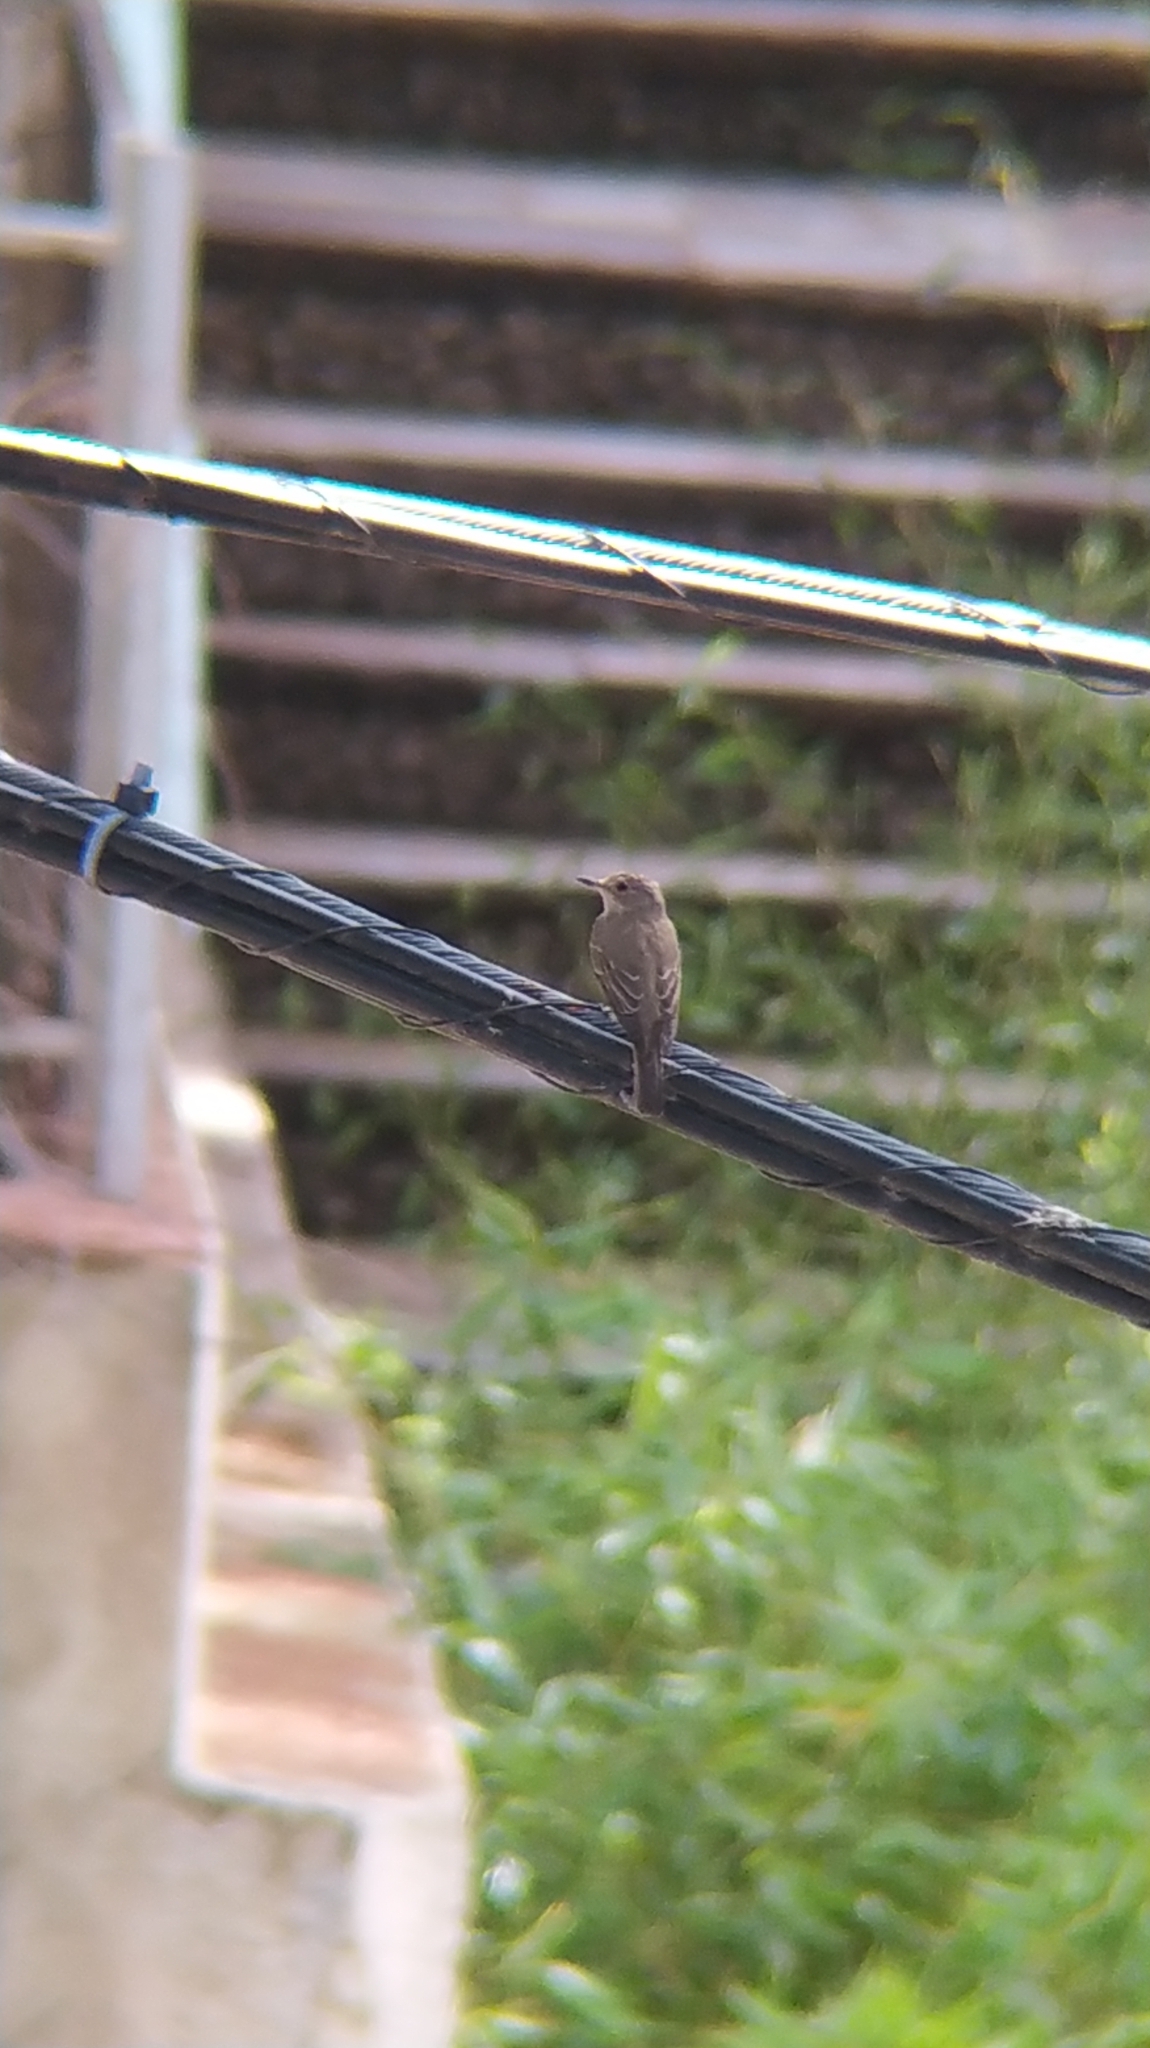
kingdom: Animalia
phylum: Chordata
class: Aves
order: Passeriformes
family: Muscicapidae
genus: Muscicapa
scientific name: Muscicapa striata
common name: Spotted flycatcher
